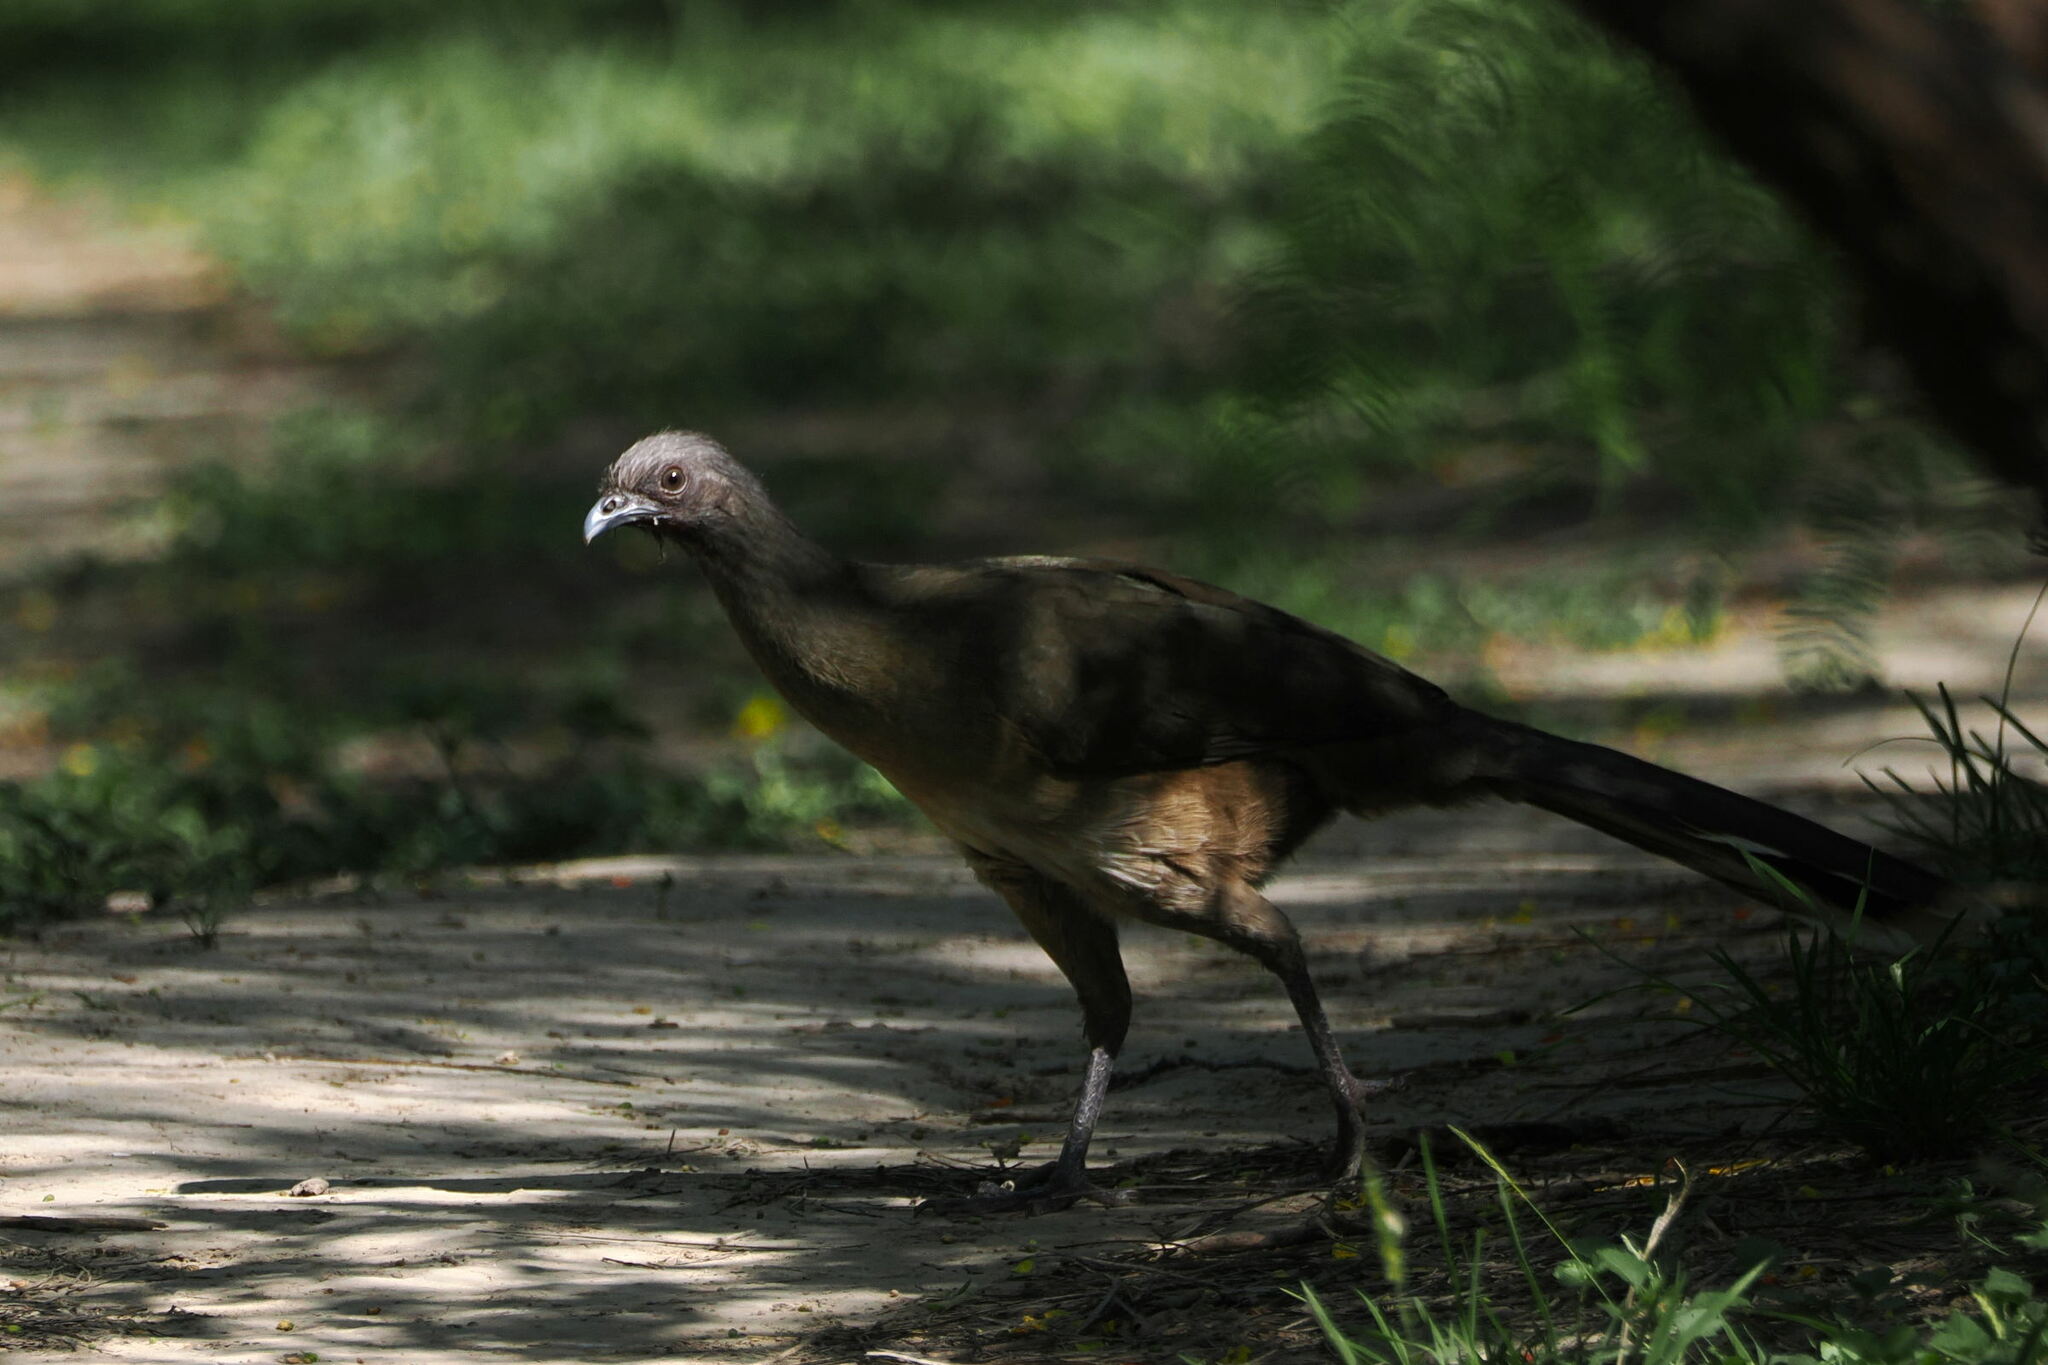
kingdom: Animalia
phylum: Chordata
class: Aves
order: Galliformes
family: Cracidae
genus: Ortalis
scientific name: Ortalis vetula
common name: Plain chachalaca
